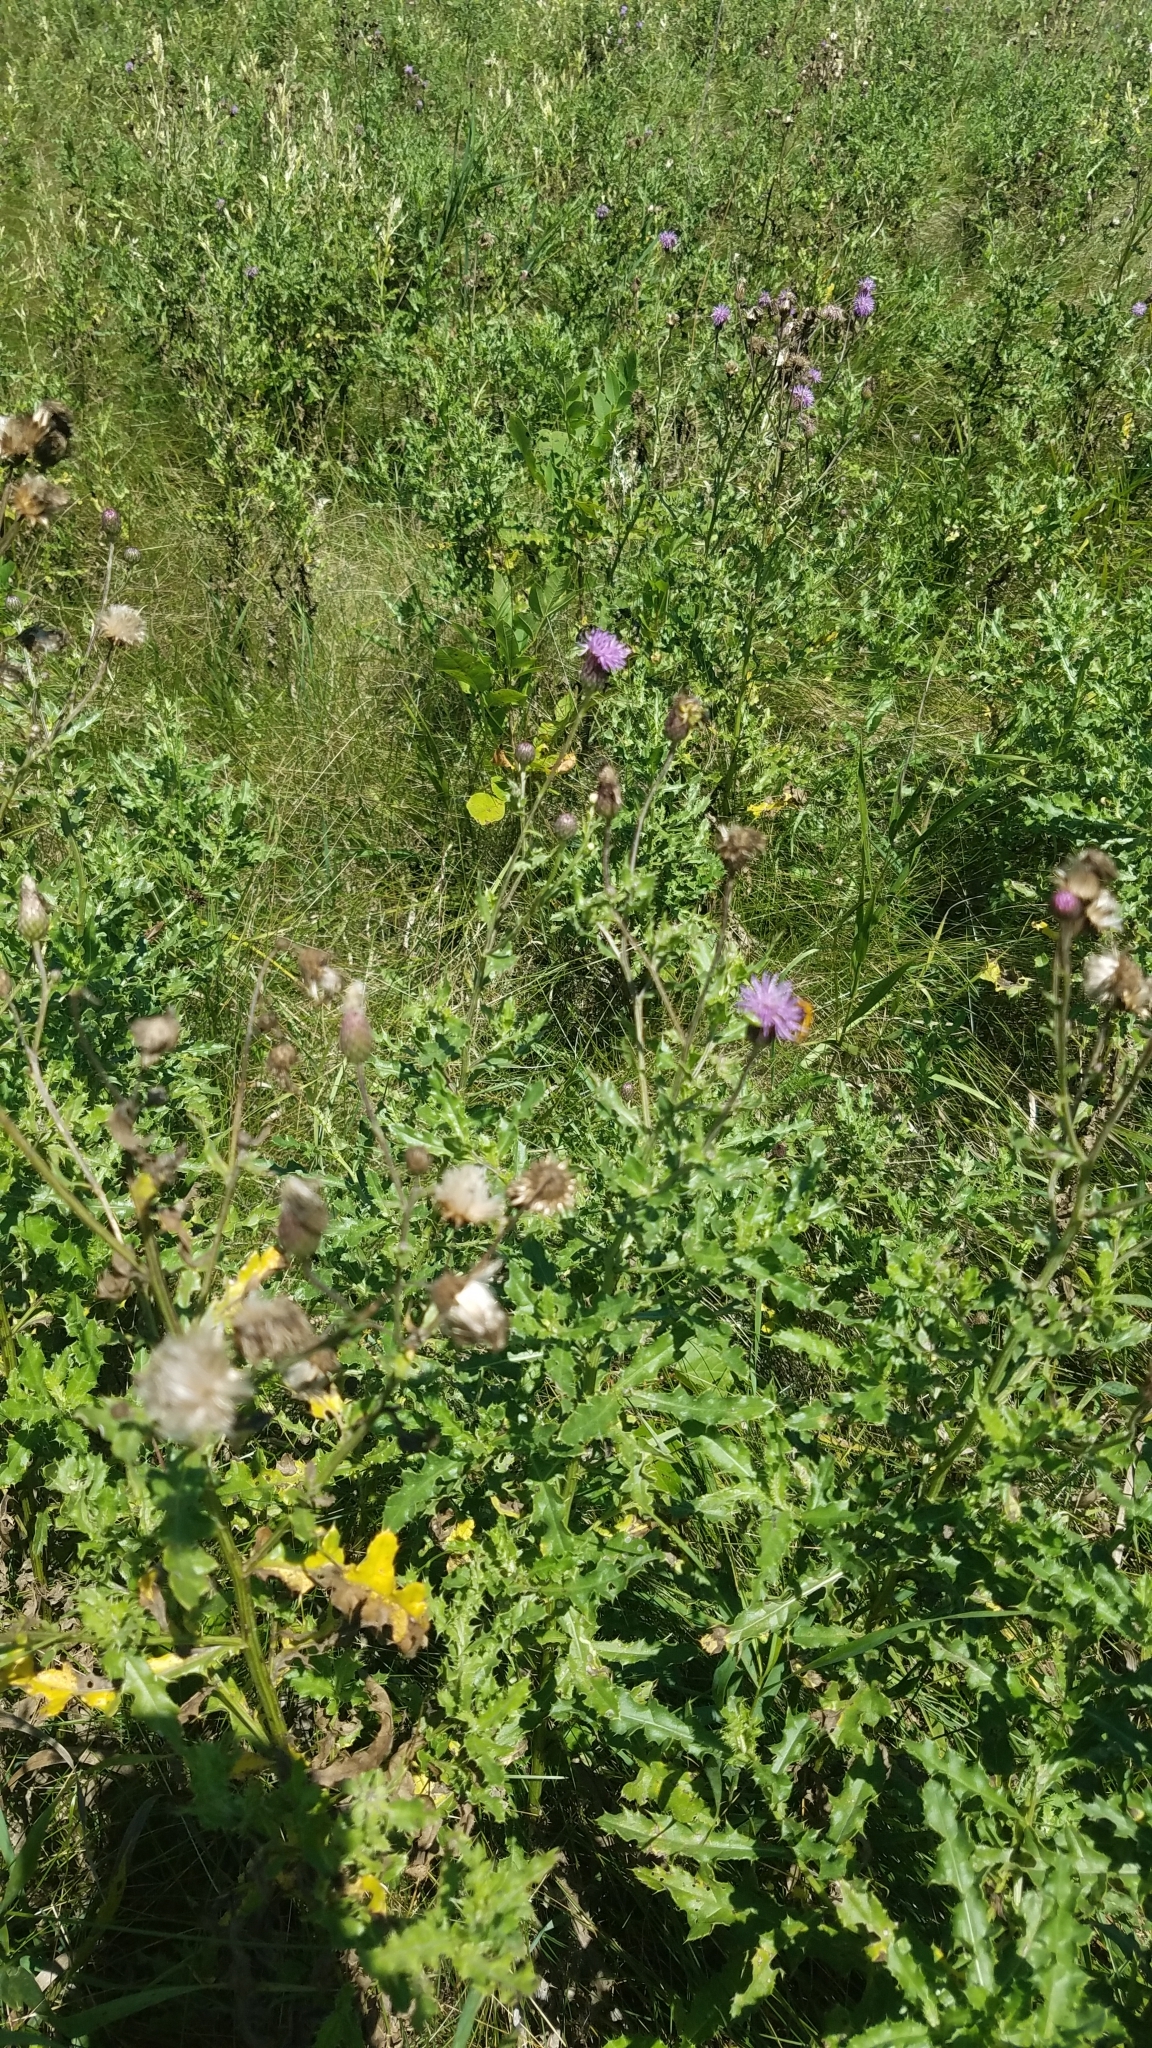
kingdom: Plantae
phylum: Tracheophyta
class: Magnoliopsida
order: Asterales
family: Asteraceae
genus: Cirsium
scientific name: Cirsium arvense
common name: Creeping thistle
